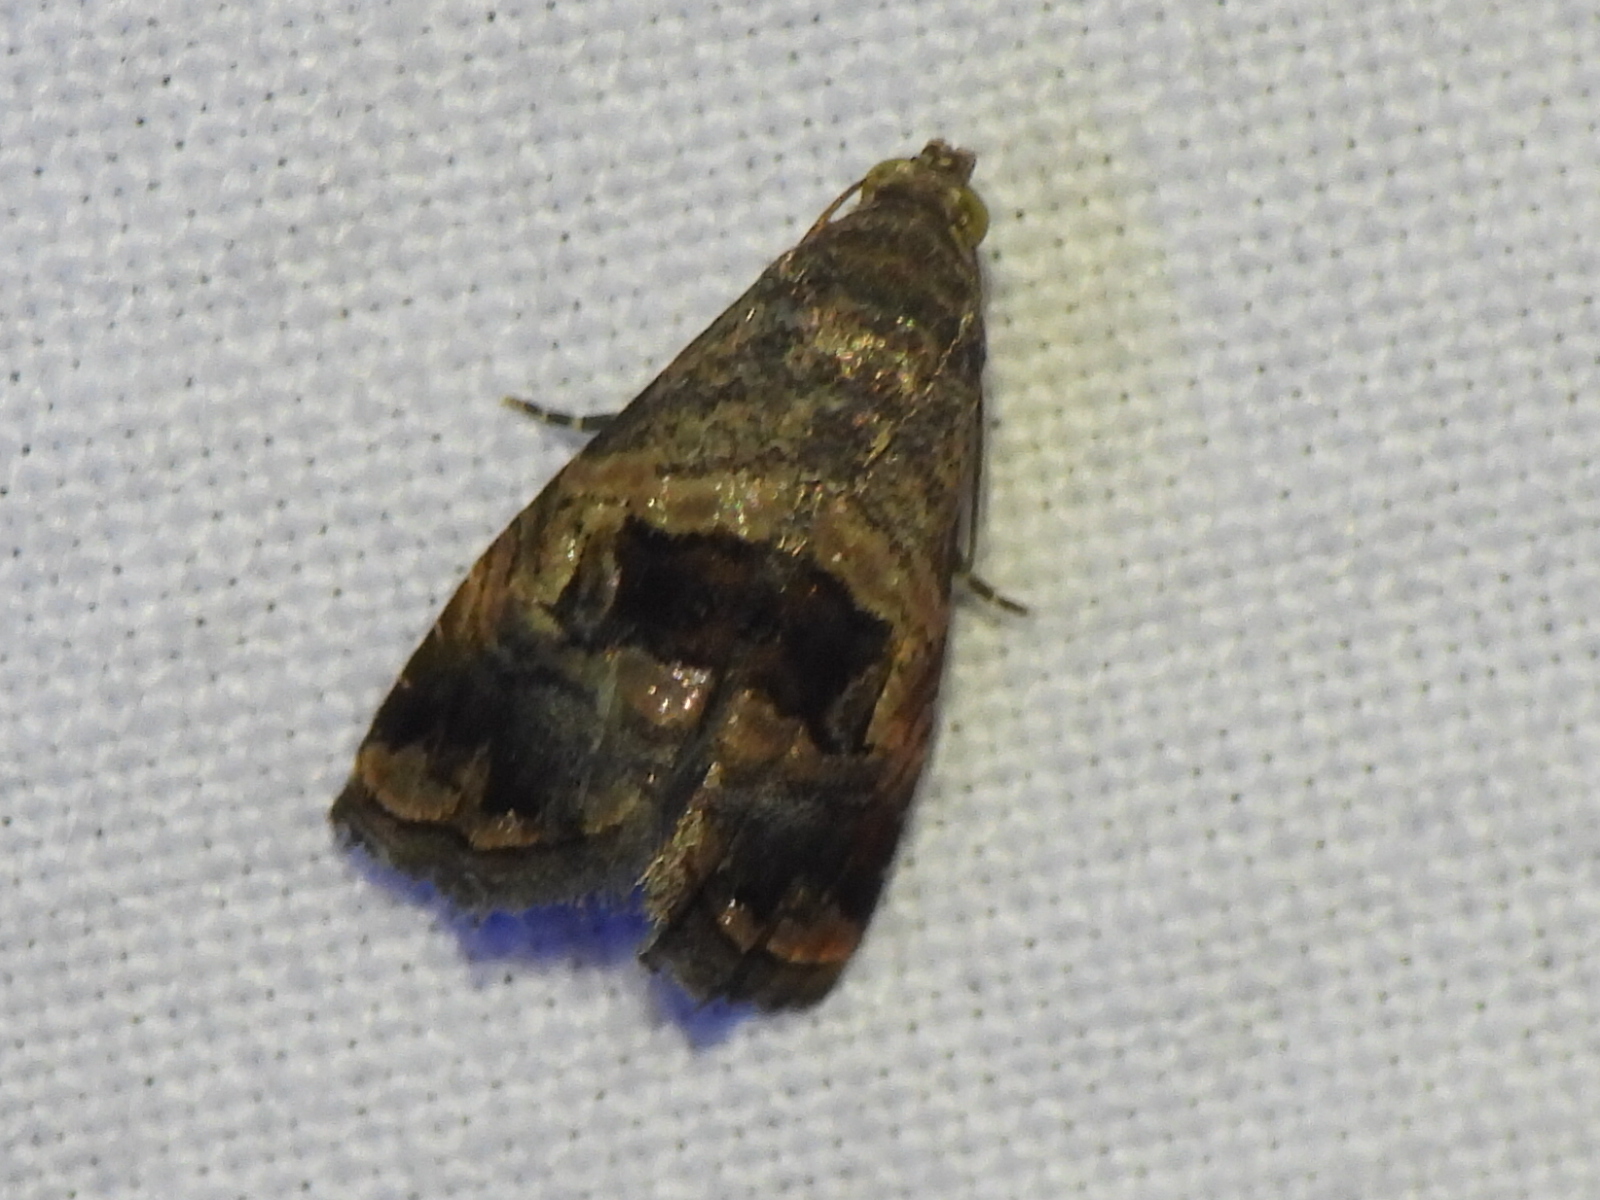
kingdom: Animalia
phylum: Arthropoda
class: Insecta
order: Lepidoptera
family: Noctuidae
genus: Tripudia
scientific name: Tripudia quadrifera
